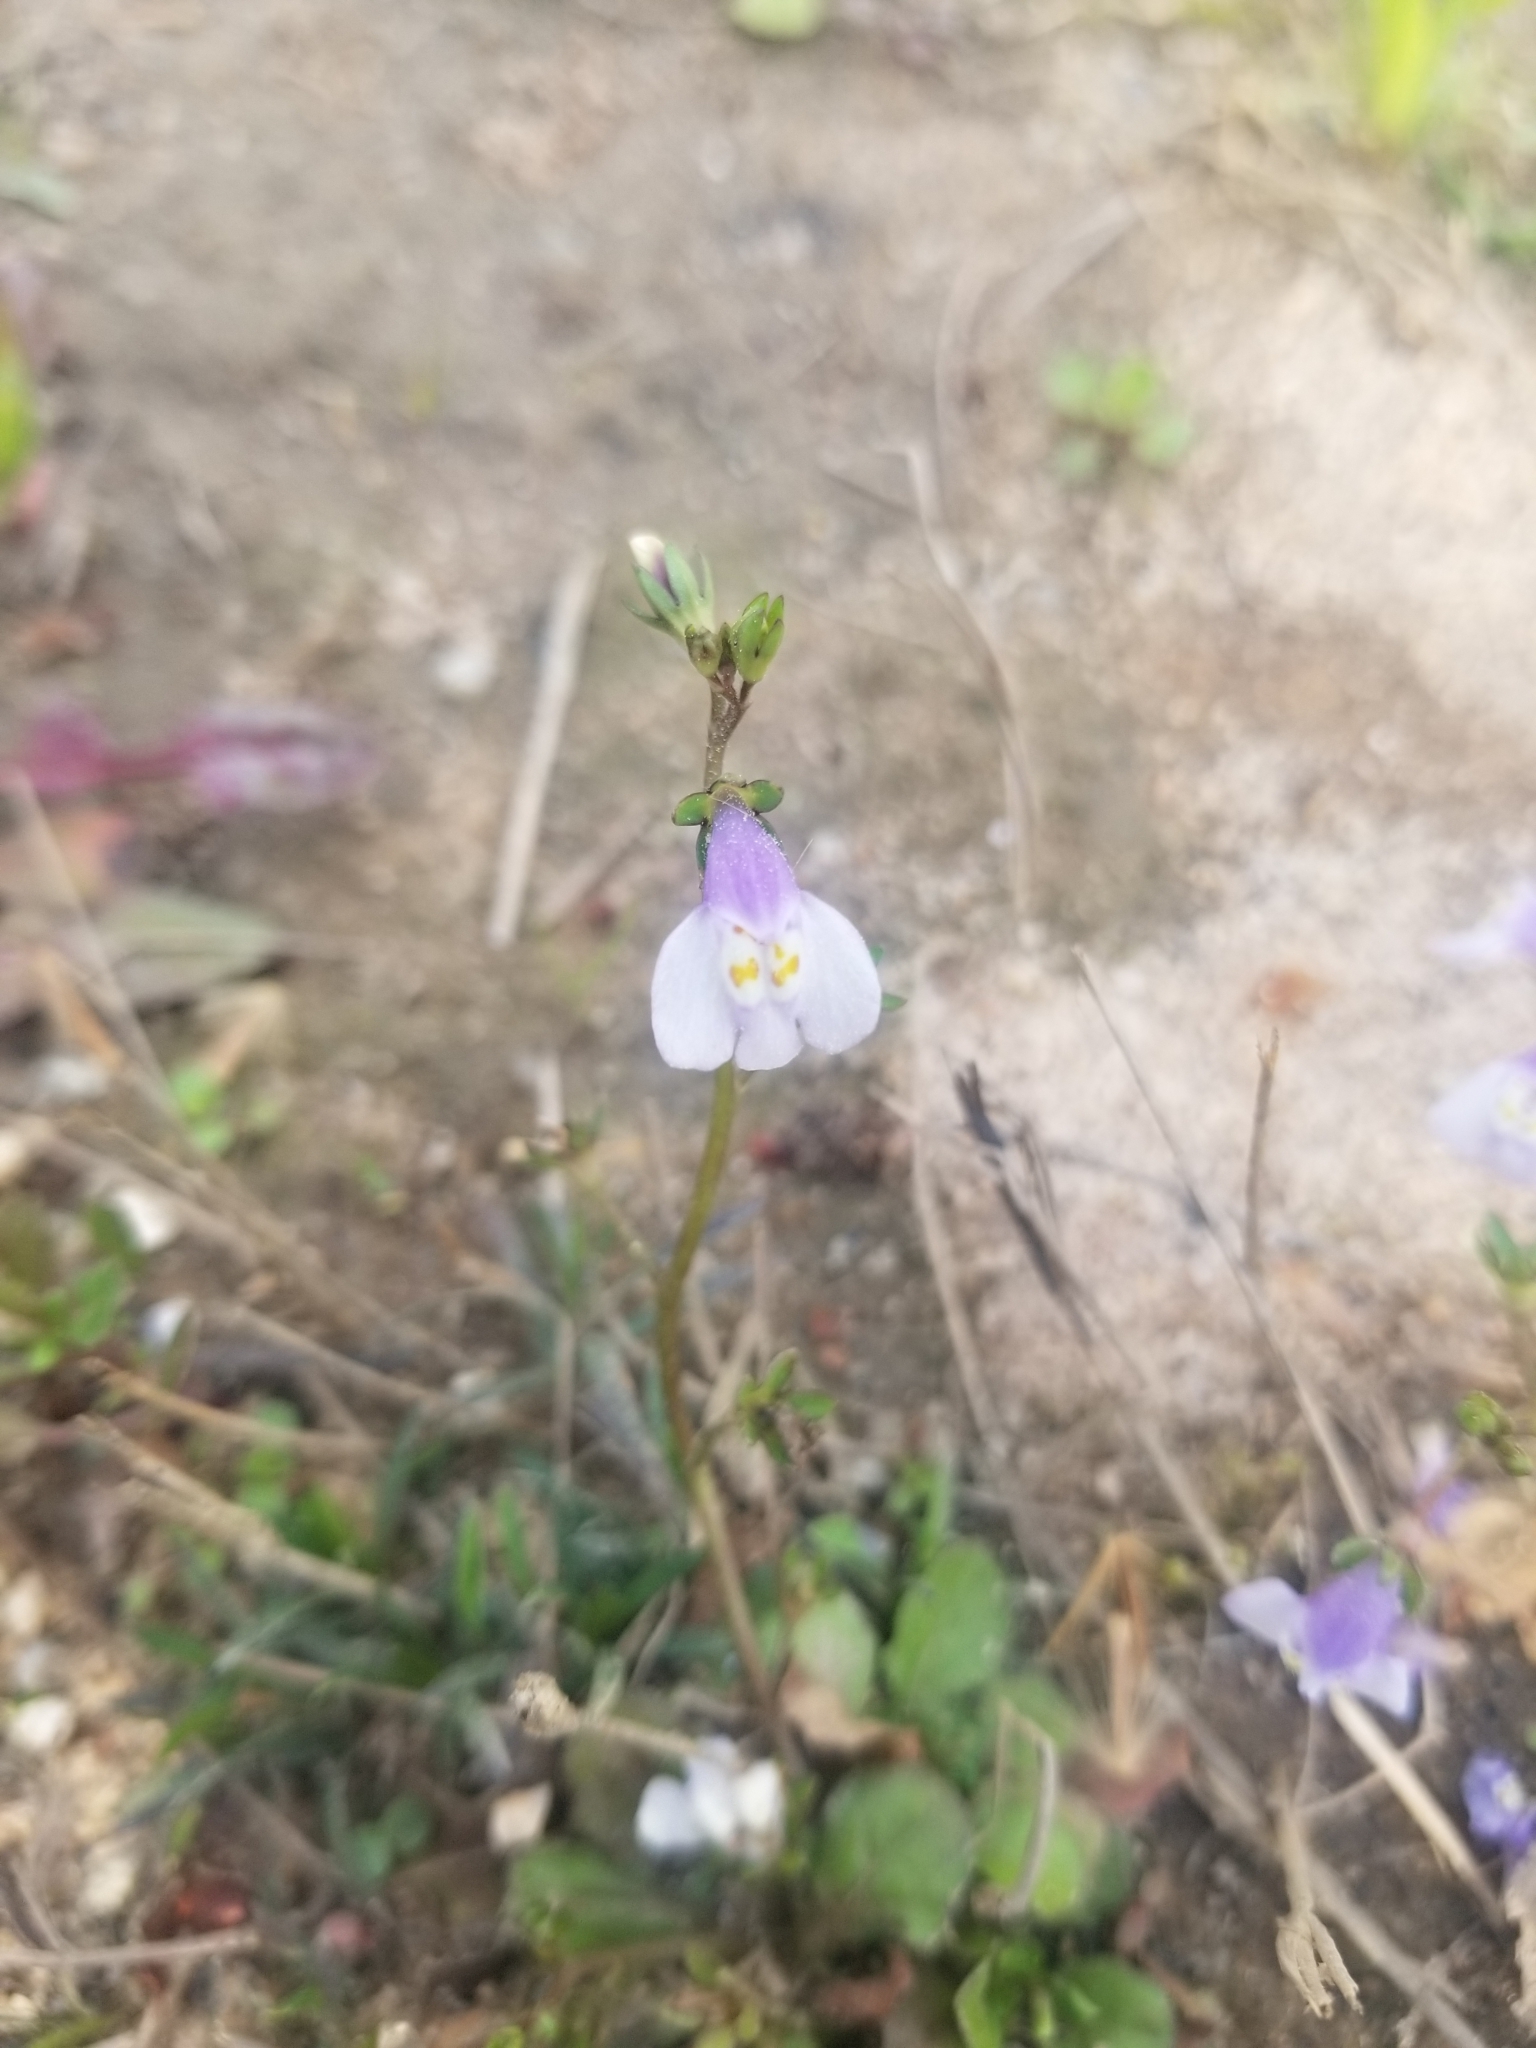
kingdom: Plantae
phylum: Tracheophyta
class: Magnoliopsida
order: Lamiales
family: Mazaceae
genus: Mazus
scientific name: Mazus pumilus
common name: Japanese mazus
